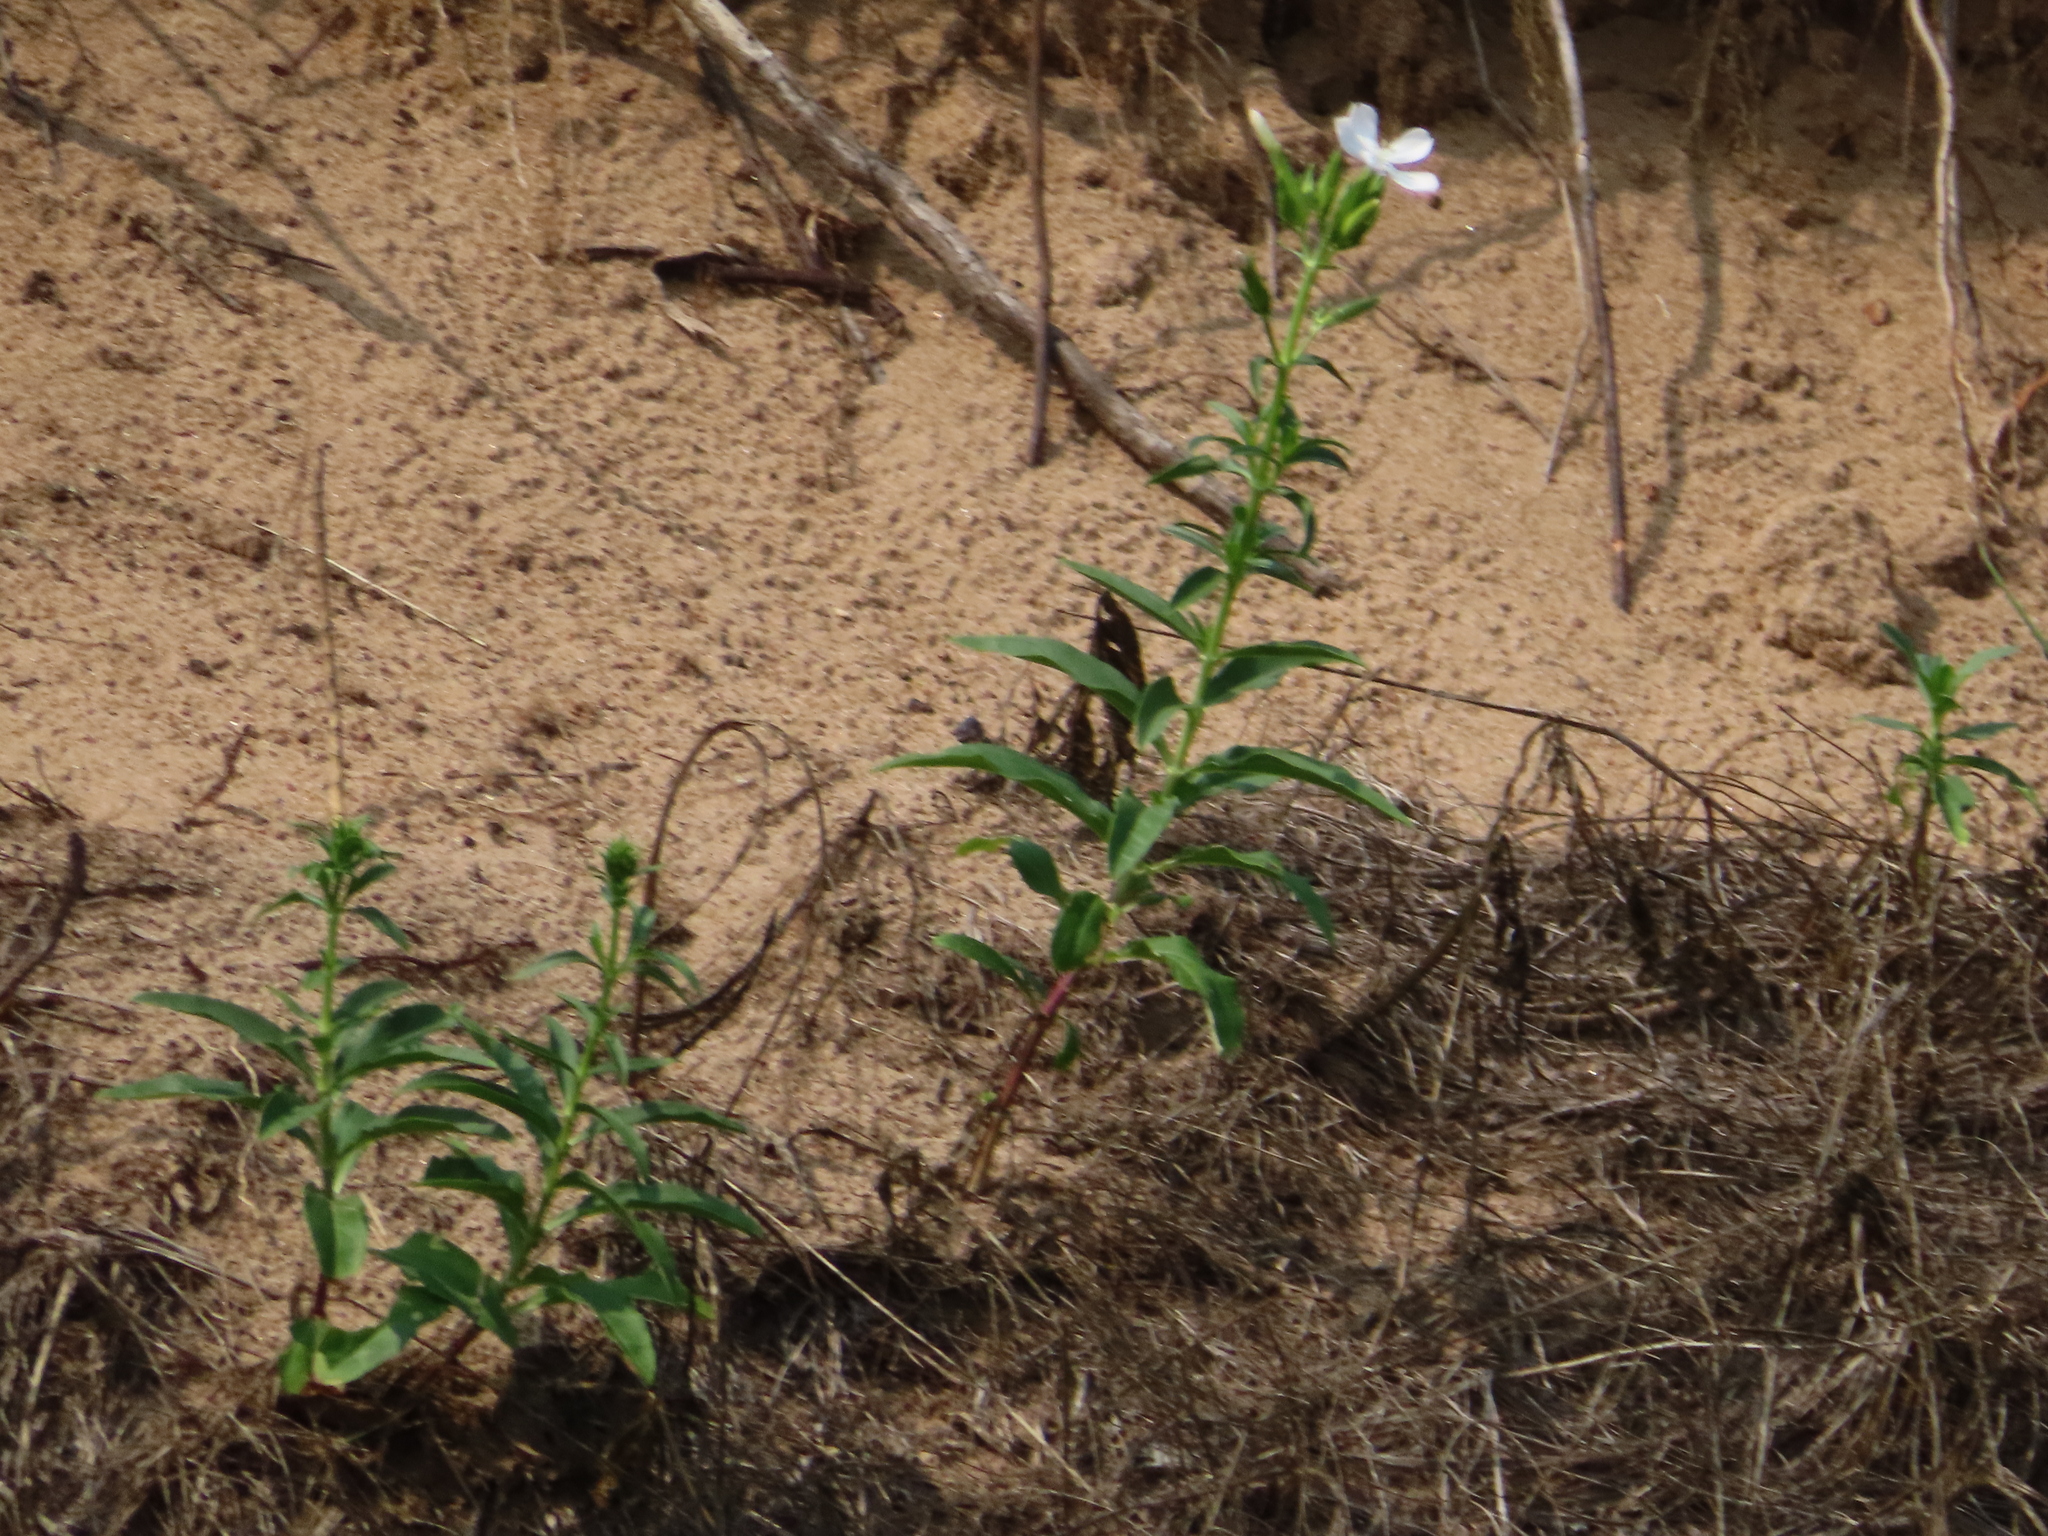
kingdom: Plantae
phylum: Tracheophyta
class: Magnoliopsida
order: Caryophyllales
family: Caryophyllaceae
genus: Saponaria
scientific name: Saponaria officinalis
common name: Soapwort
